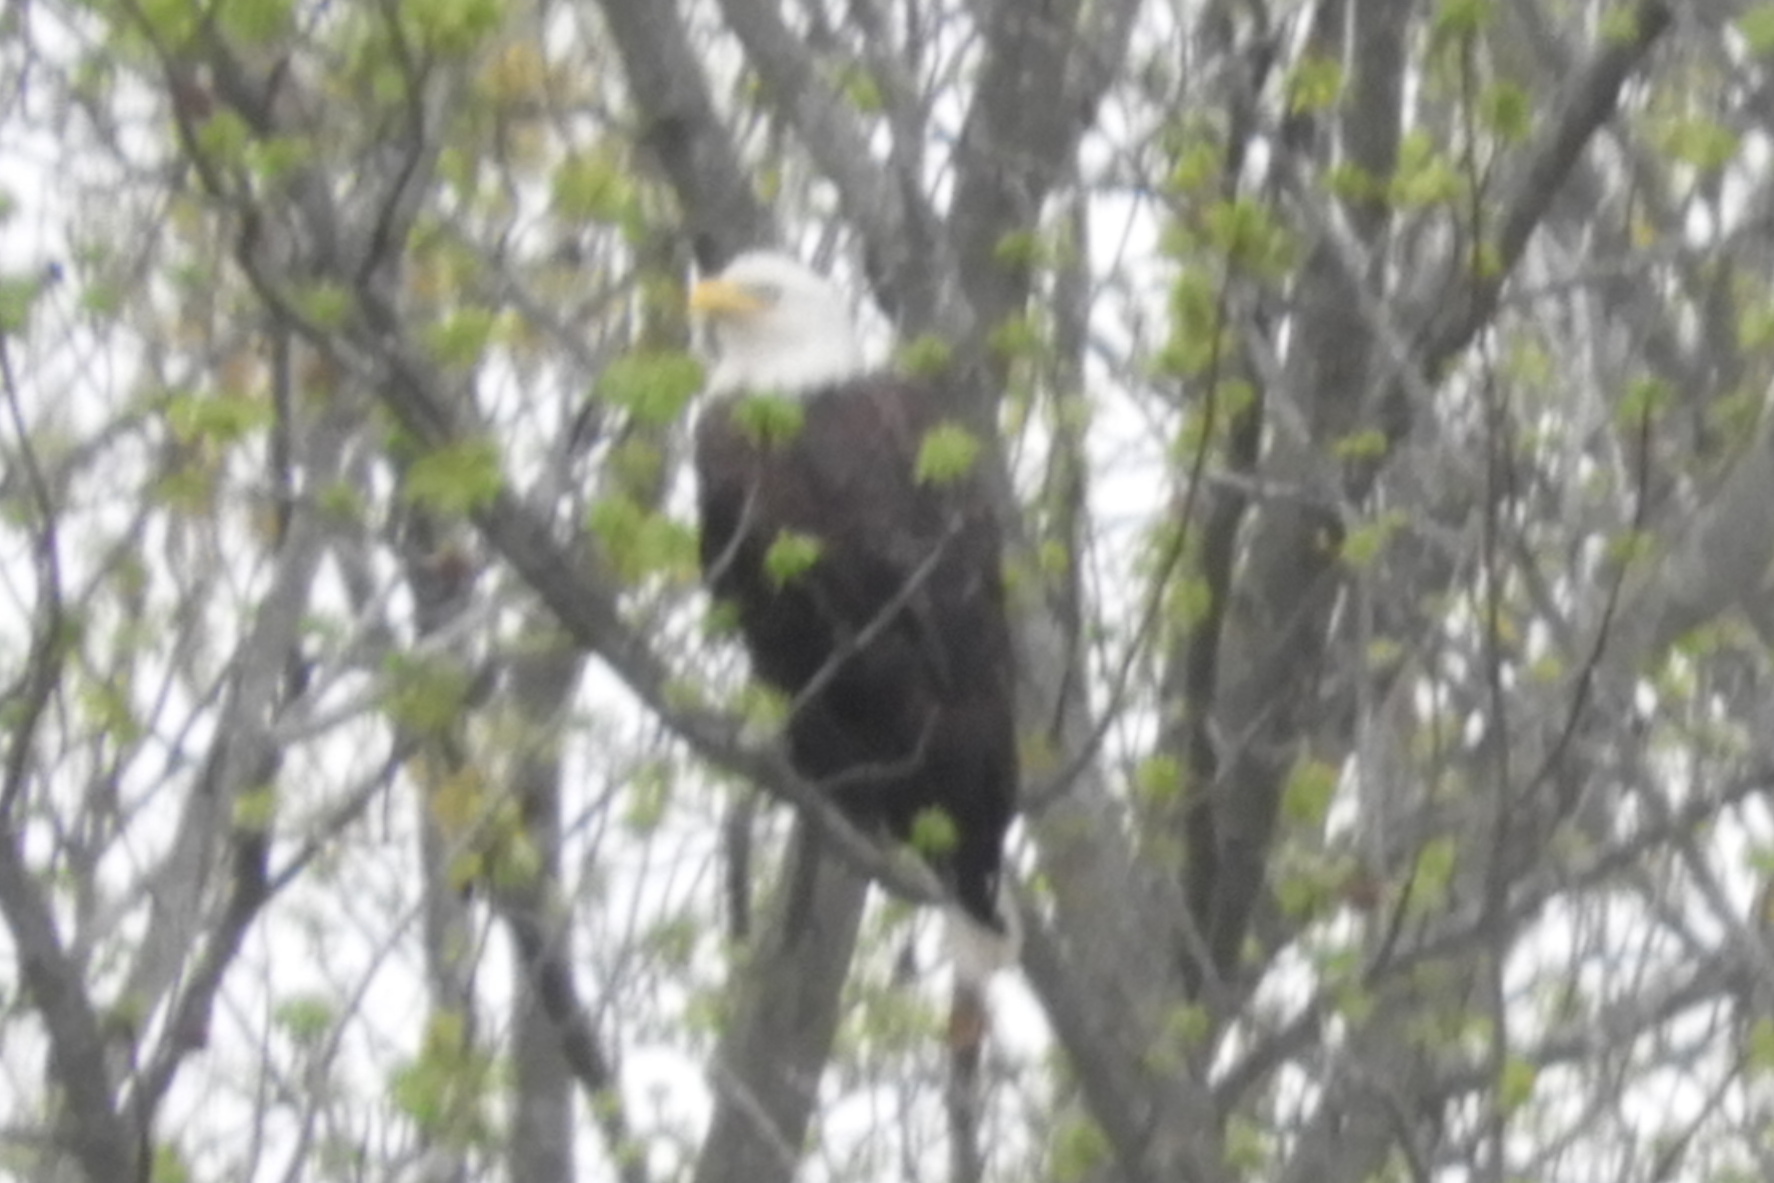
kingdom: Animalia
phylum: Chordata
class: Aves
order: Accipitriformes
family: Accipitridae
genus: Haliaeetus
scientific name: Haliaeetus leucocephalus
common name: Bald eagle
